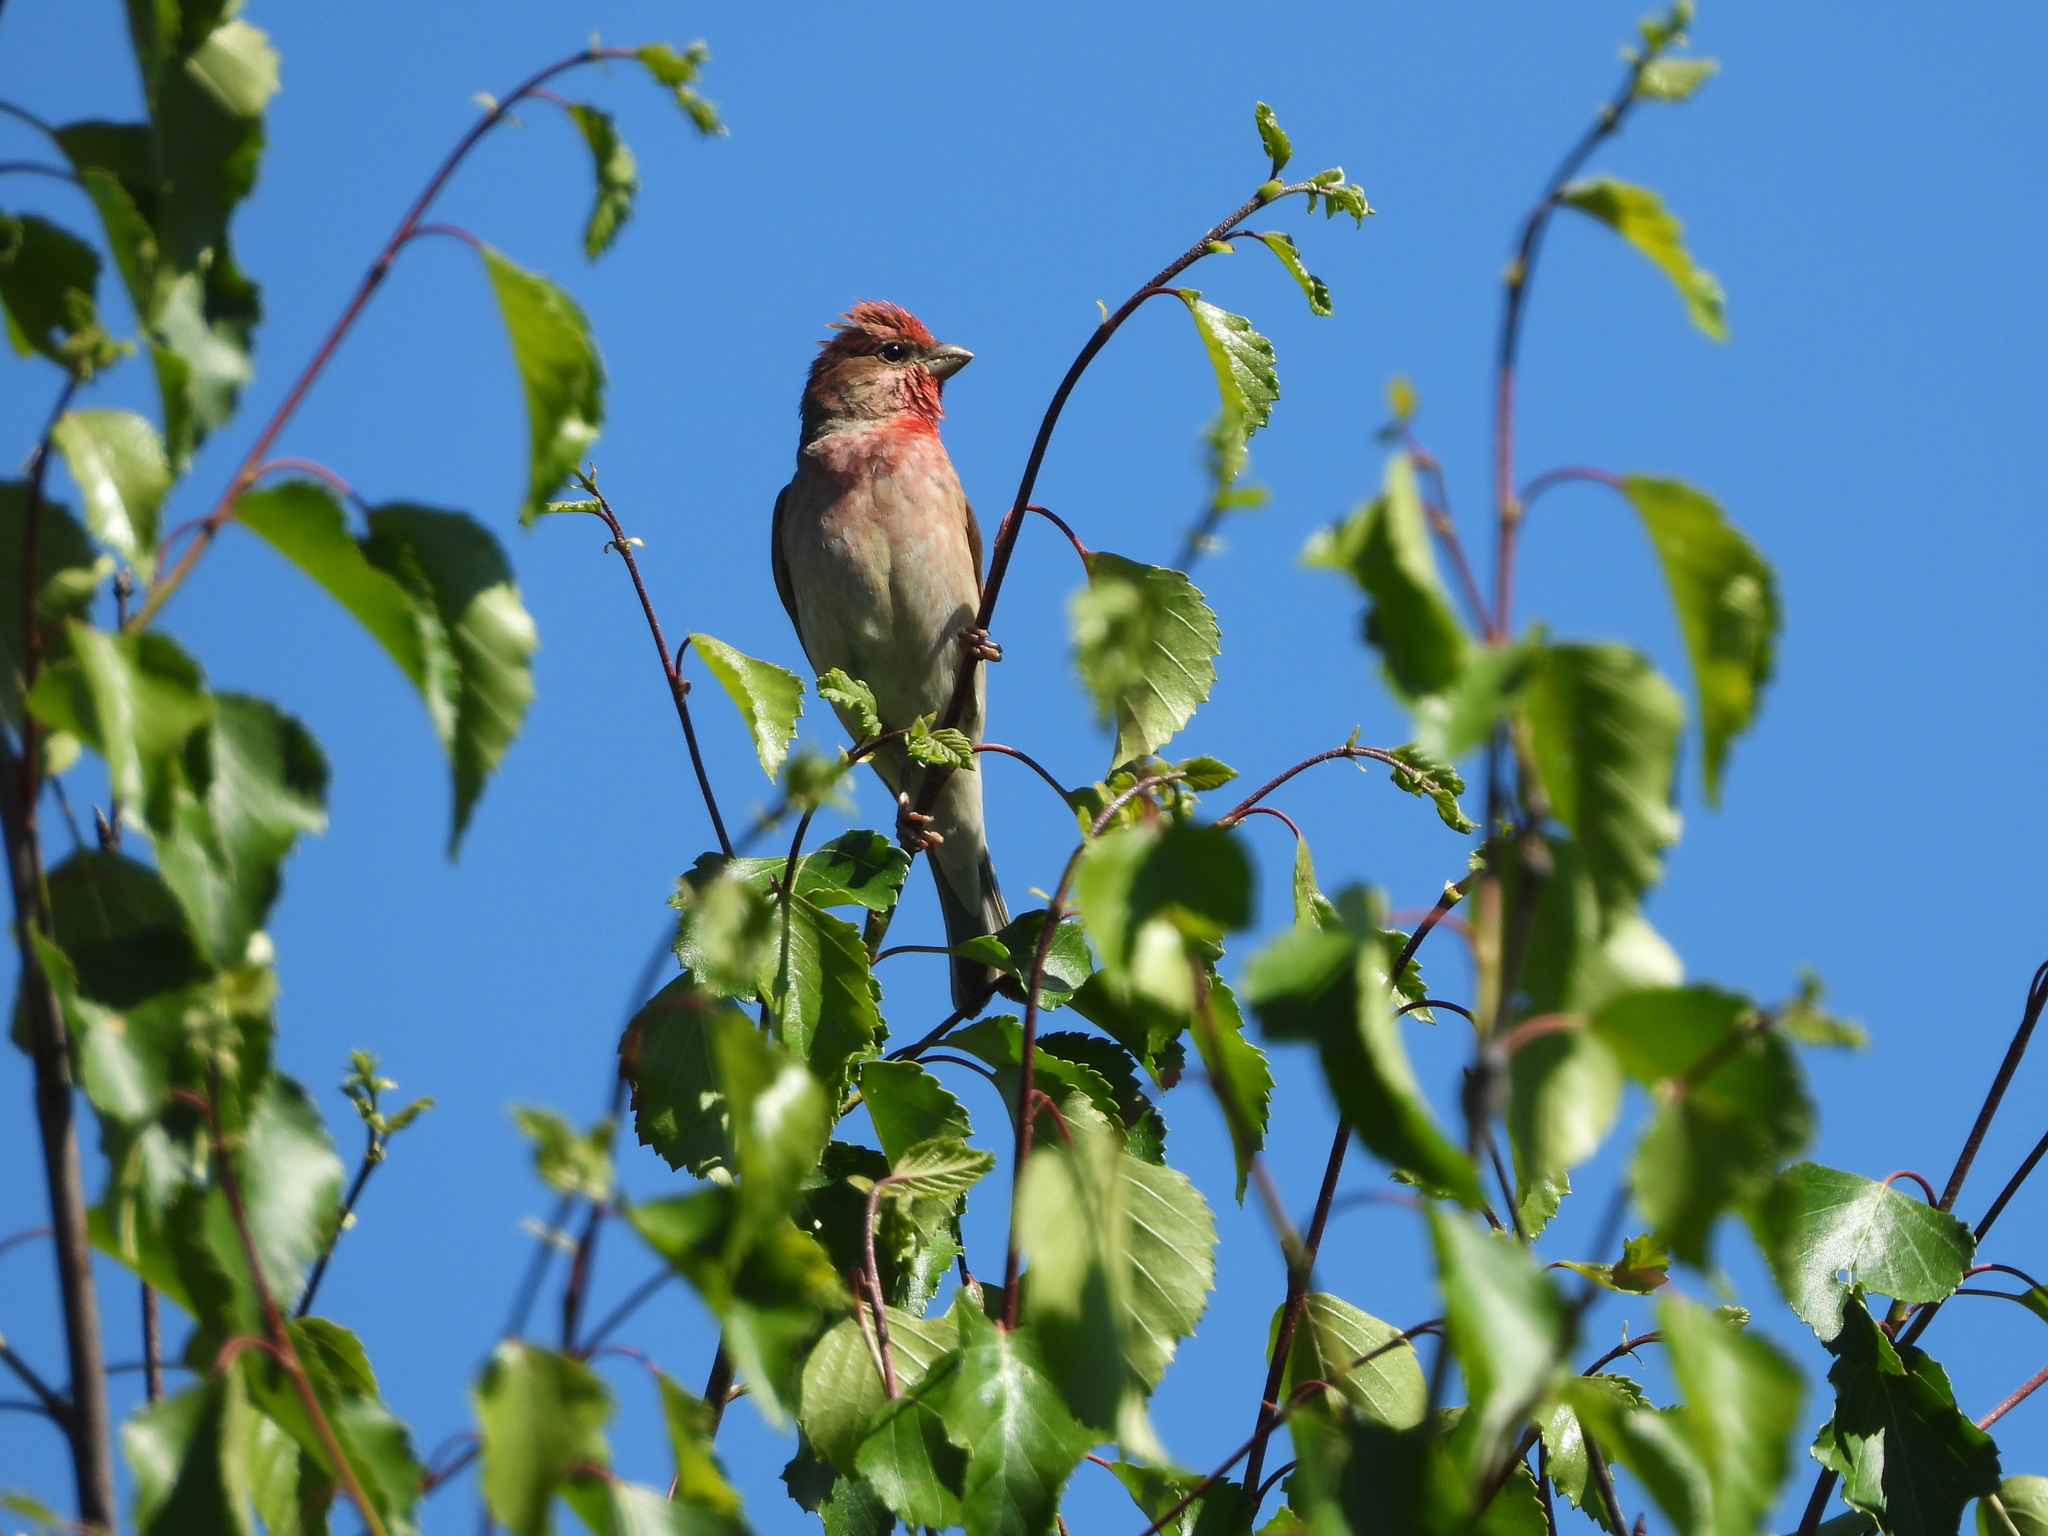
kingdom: Animalia
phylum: Chordata
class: Aves
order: Passeriformes
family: Fringillidae
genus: Carpodacus
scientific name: Carpodacus erythrinus
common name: Common rosefinch
